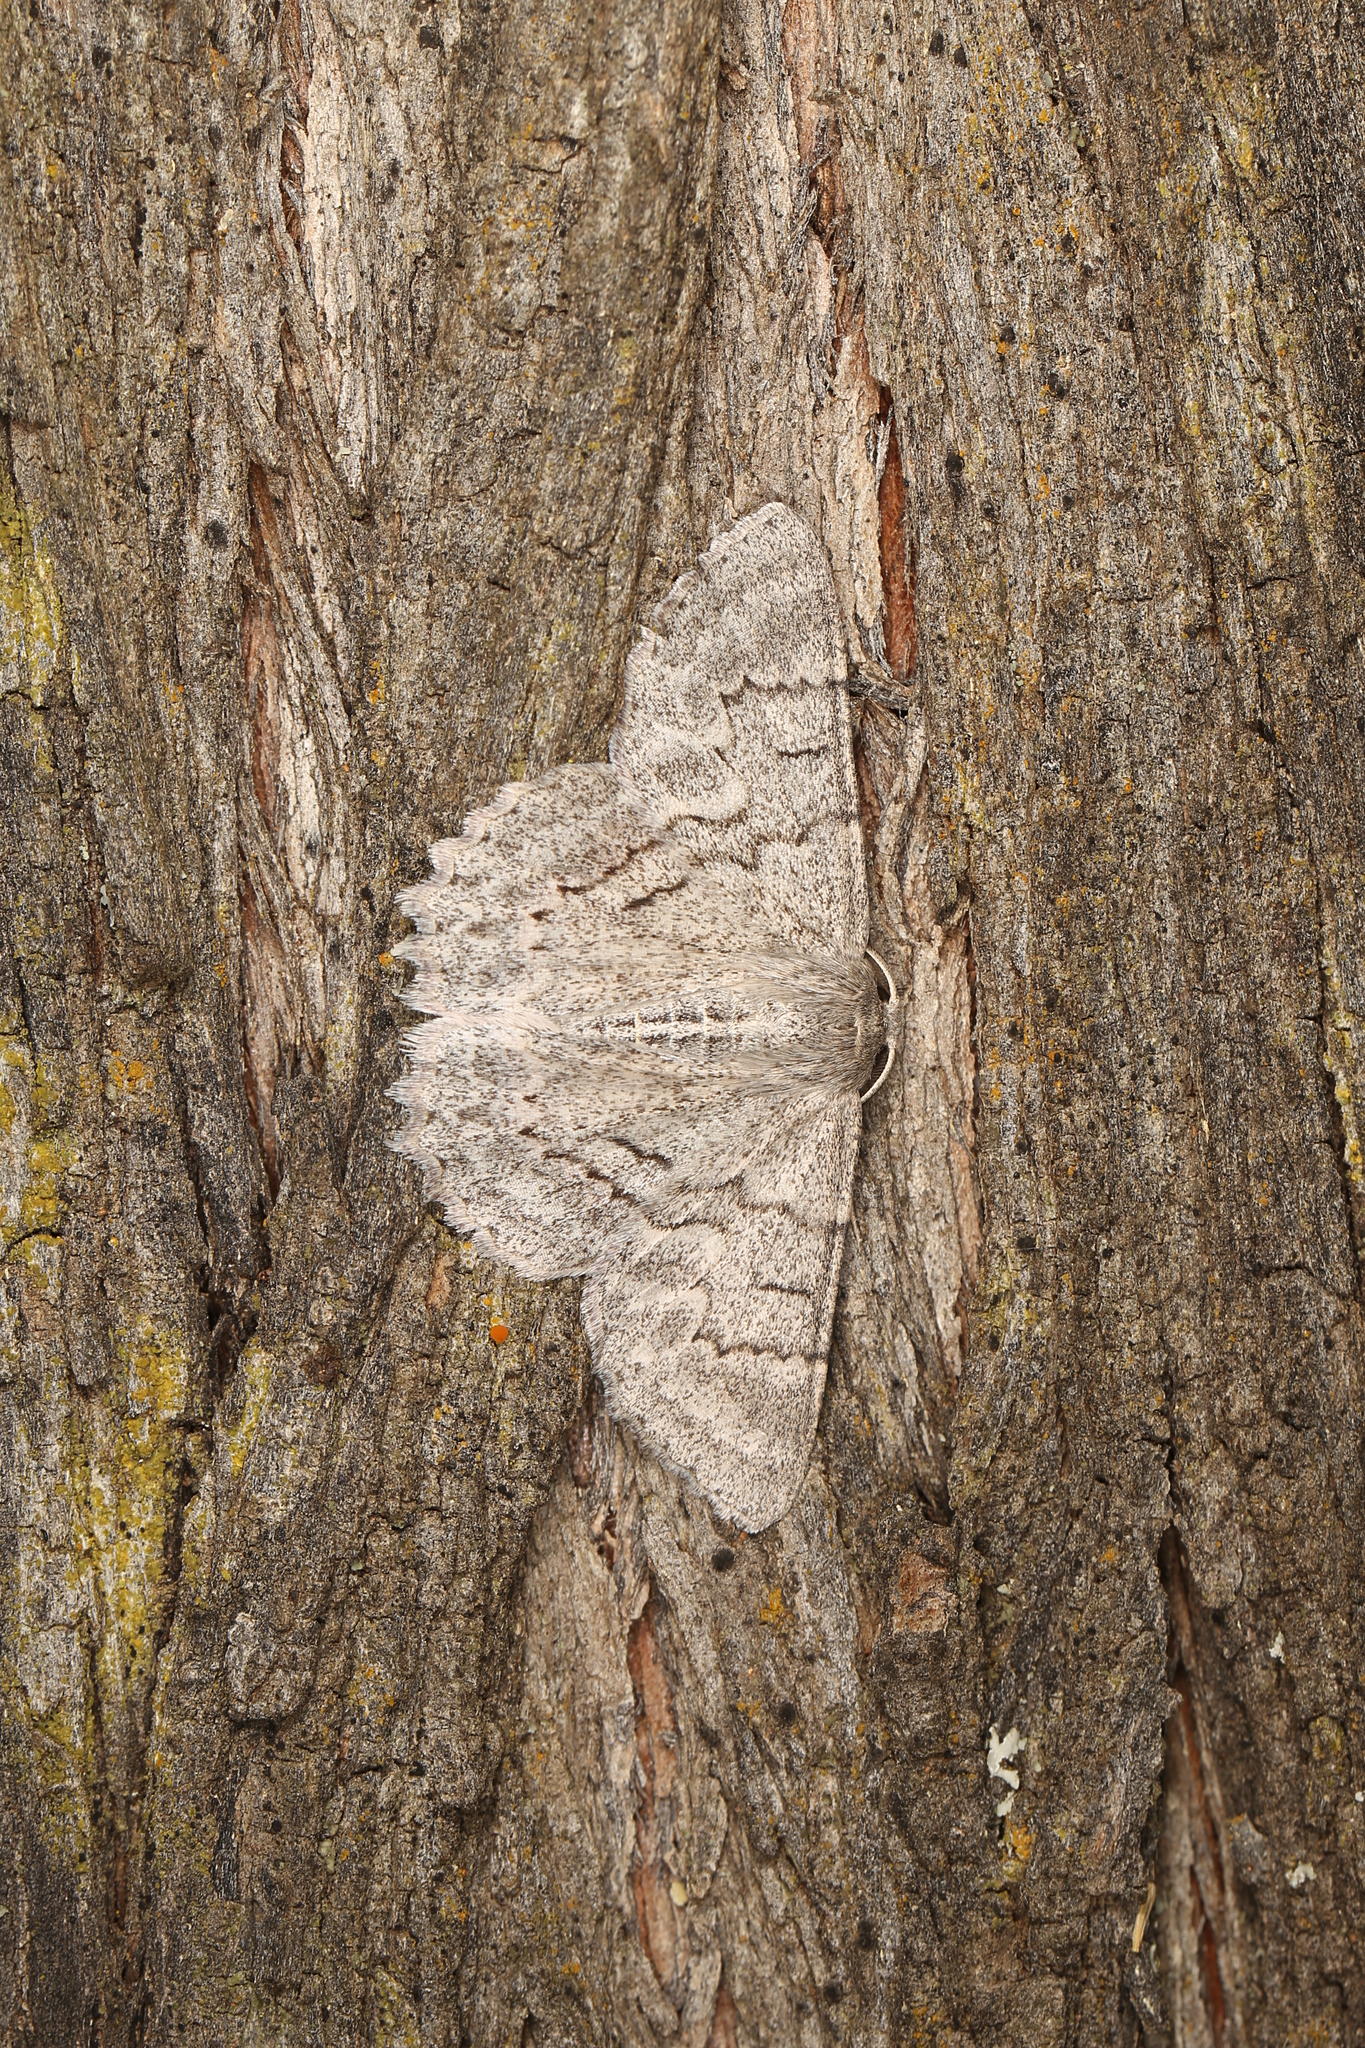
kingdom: Animalia
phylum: Arthropoda
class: Insecta
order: Lepidoptera
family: Geometridae
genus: Crypsiphona
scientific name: Crypsiphona ocultaria
